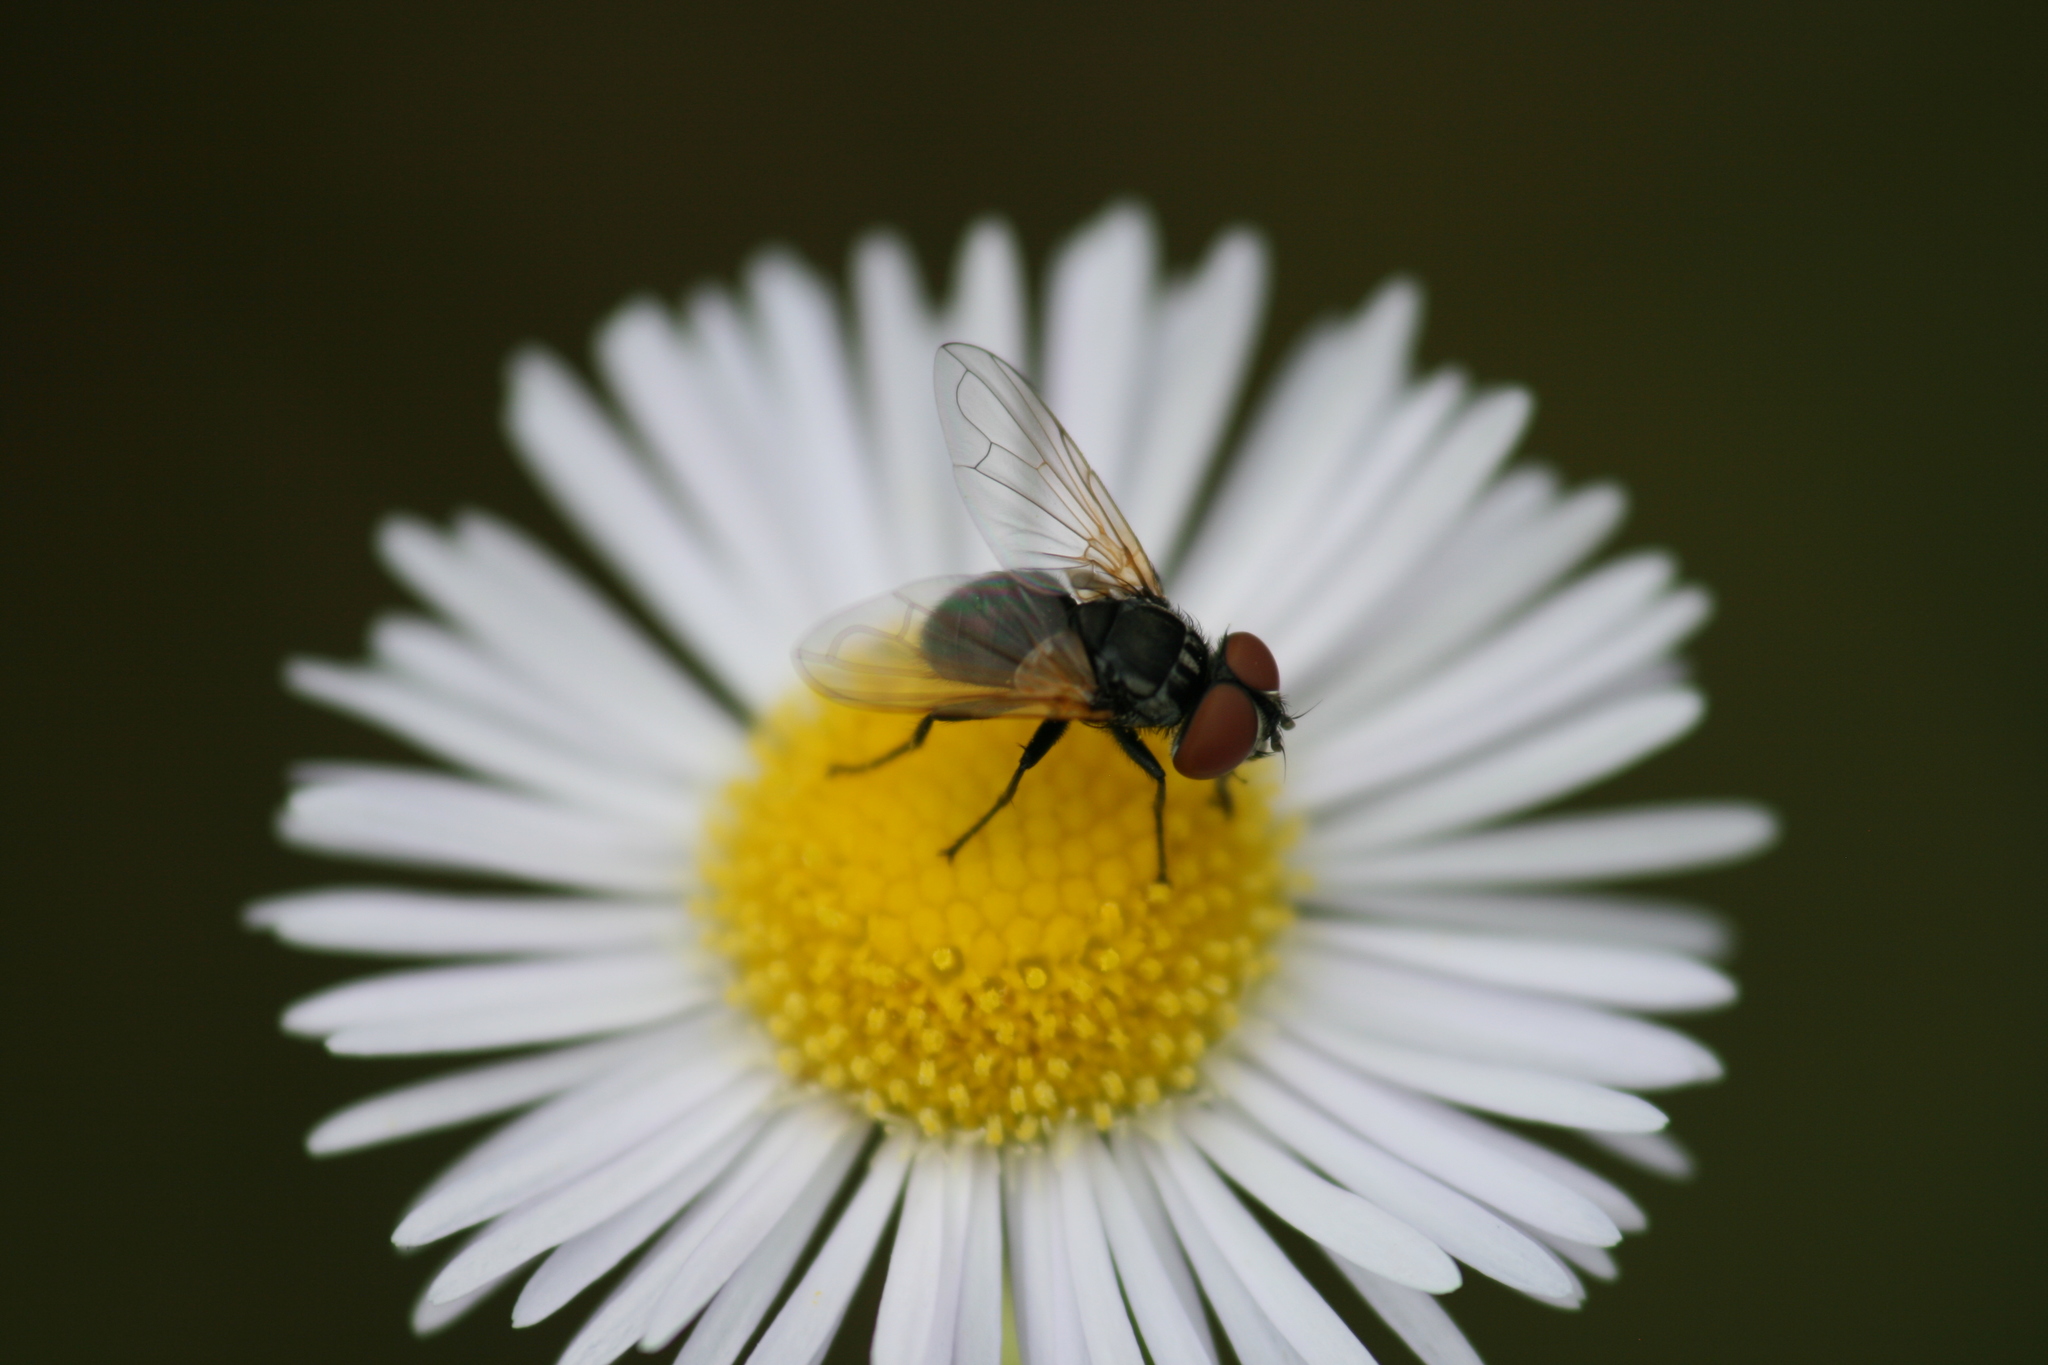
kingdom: Animalia
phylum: Arthropoda
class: Insecta
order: Diptera
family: Tachinidae
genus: Phasia
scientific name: Phasia obesa
